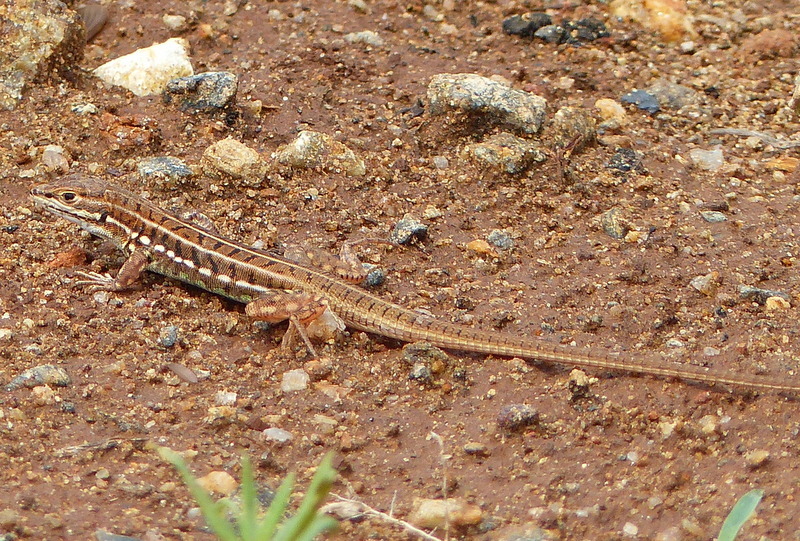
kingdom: Animalia
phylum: Chordata
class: Squamata
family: Lacertidae
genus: Heliobolus
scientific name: Heliobolus spekii
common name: Speke’s sand lizard
